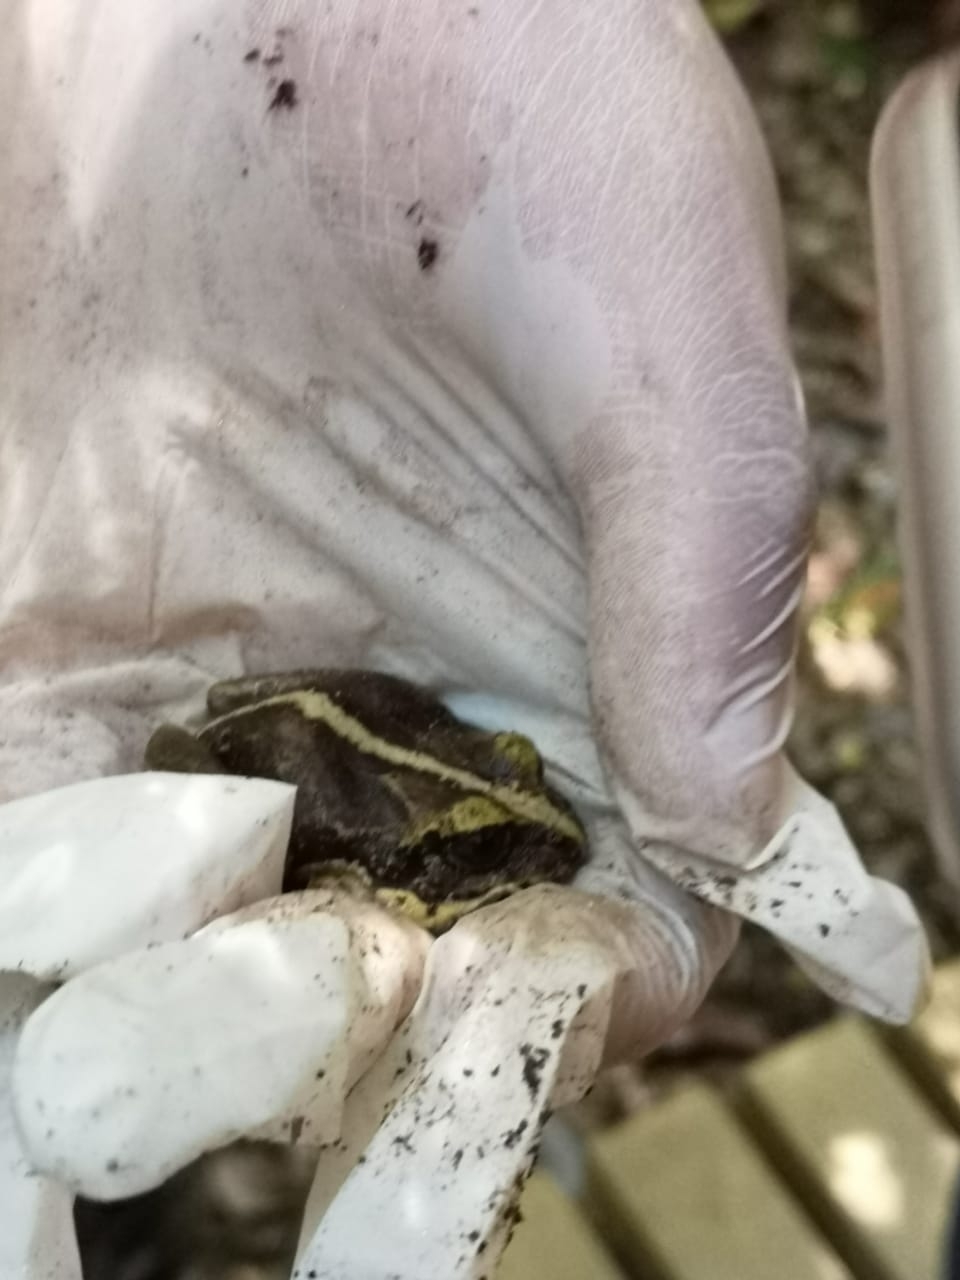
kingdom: Animalia
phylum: Chordata
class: Amphibia
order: Anura
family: Alsodidae
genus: Eupsophus
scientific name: Eupsophus vertebralis
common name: Valdivia ground frog
